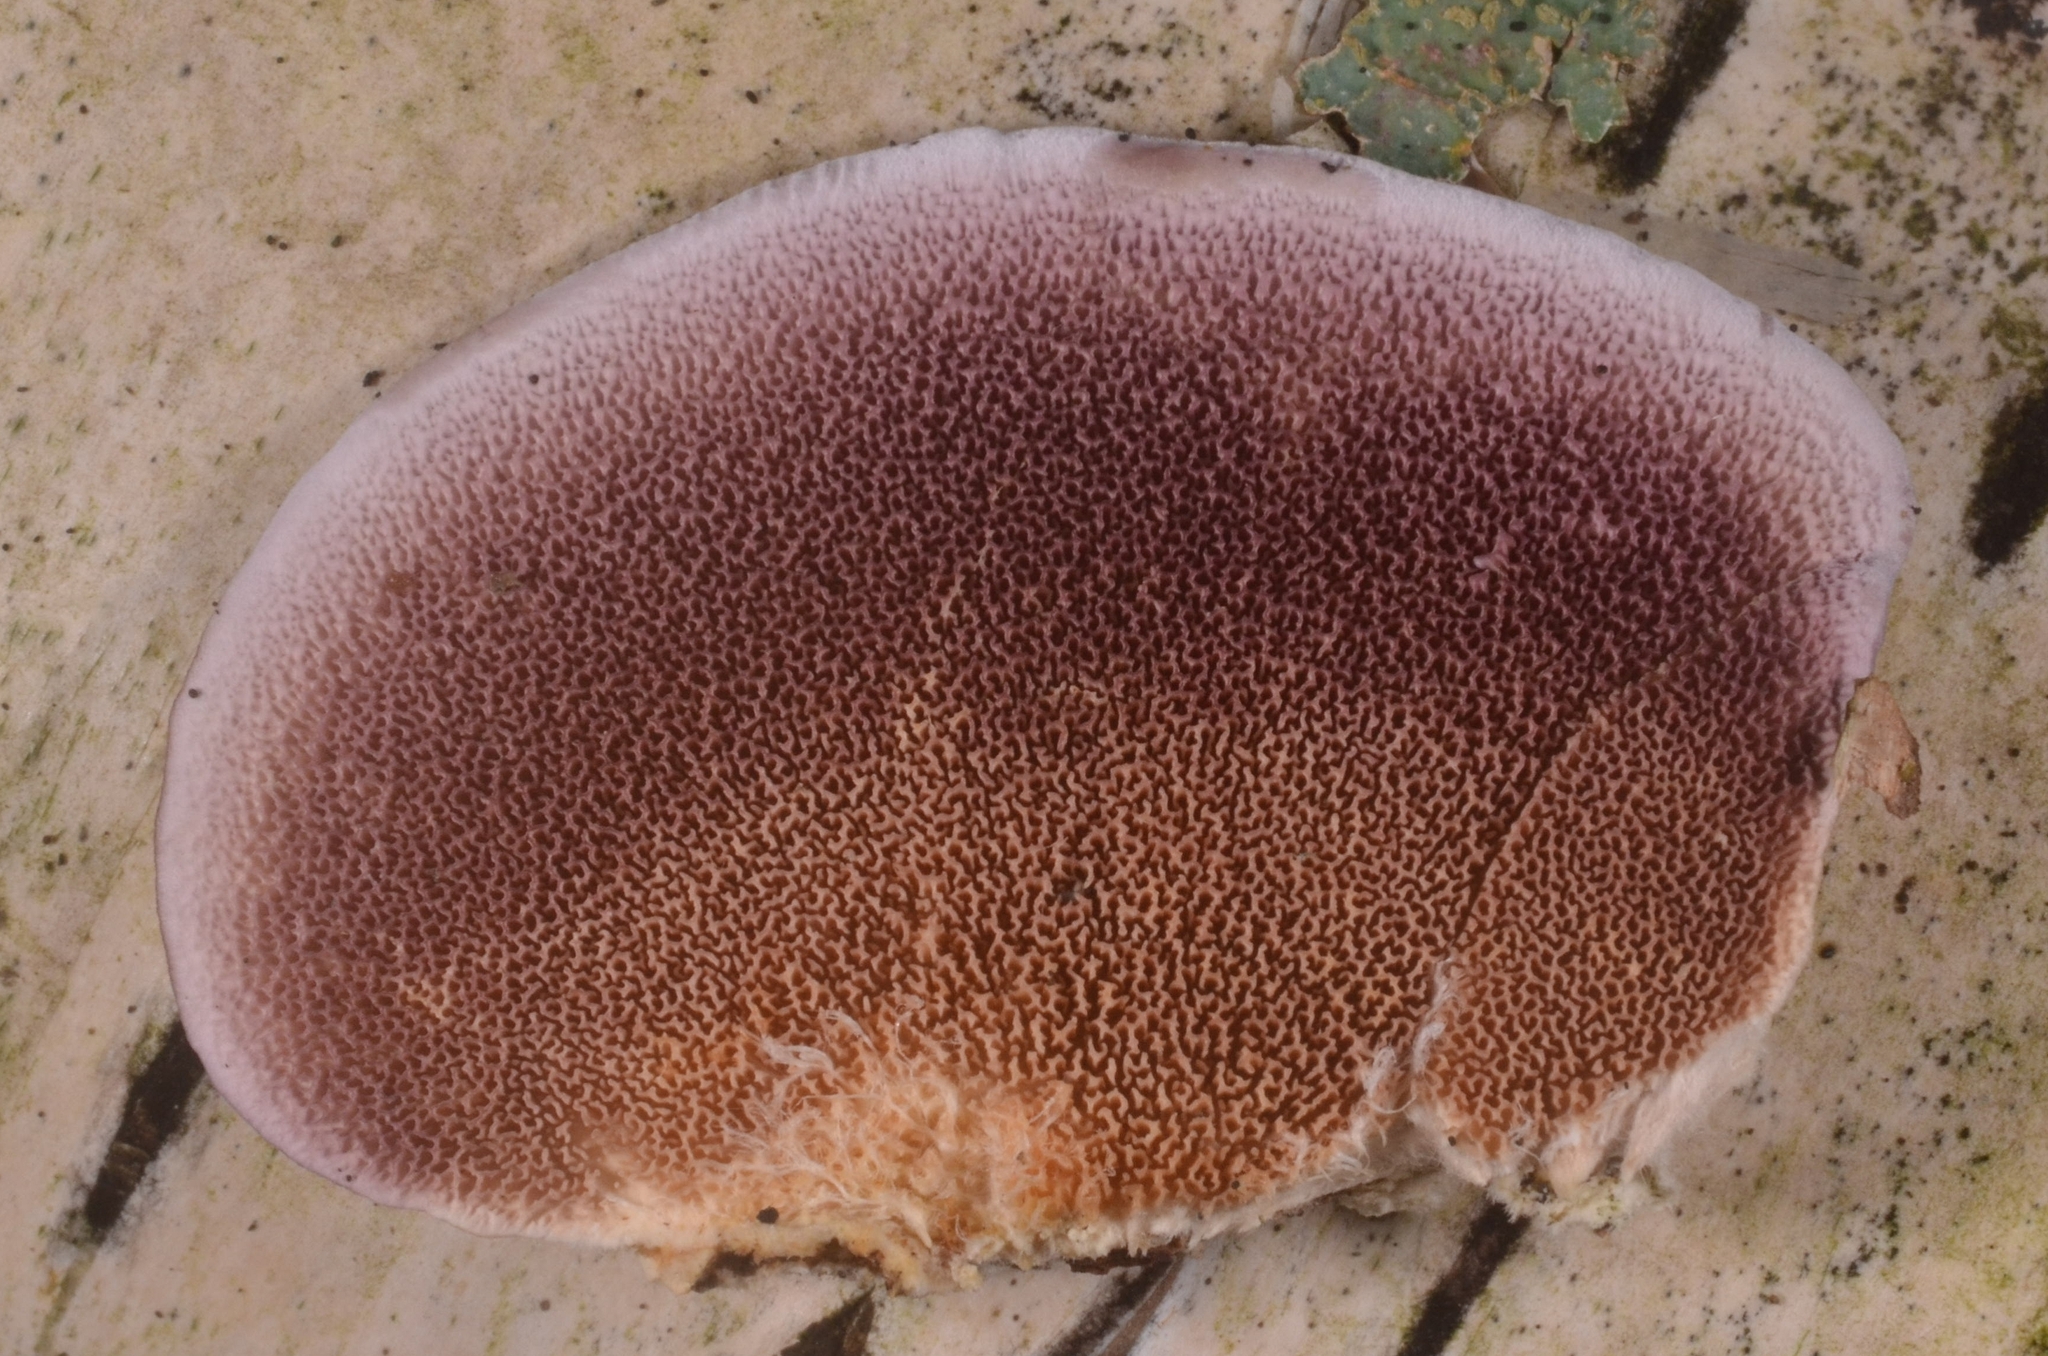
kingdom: Fungi
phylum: Basidiomycota
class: Agaricomycetes
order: Hymenochaetales
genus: Trichaptum
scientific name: Trichaptum biforme
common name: Violet-toothed polypore
